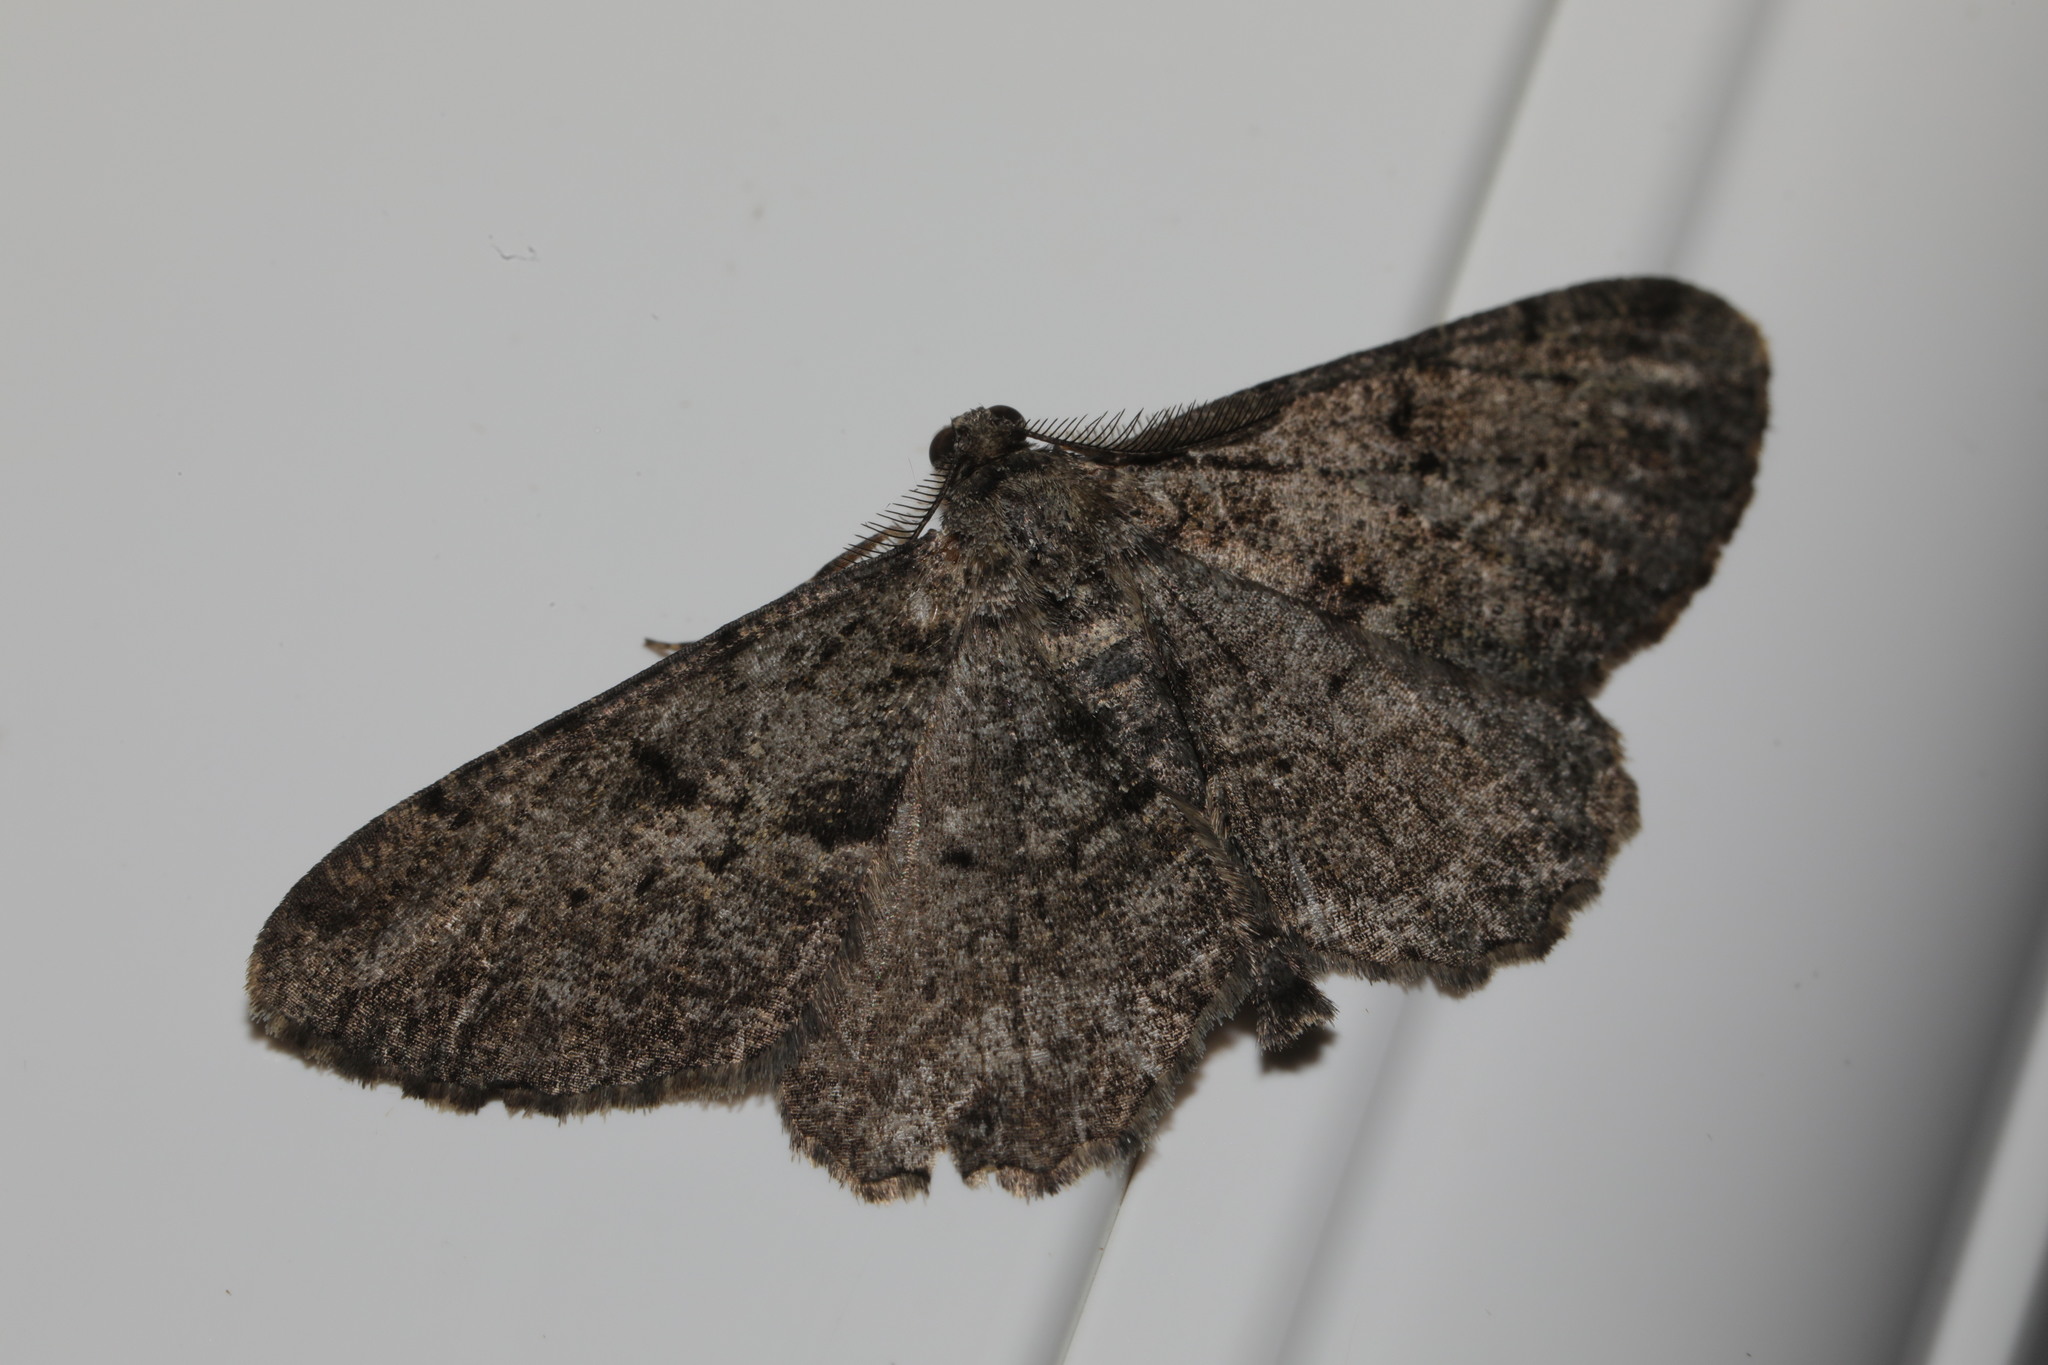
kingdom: Animalia
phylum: Arthropoda
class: Insecta
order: Lepidoptera
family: Geometridae
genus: Peribatodes
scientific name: Peribatodes rhomboidaria
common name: Willow beauty
